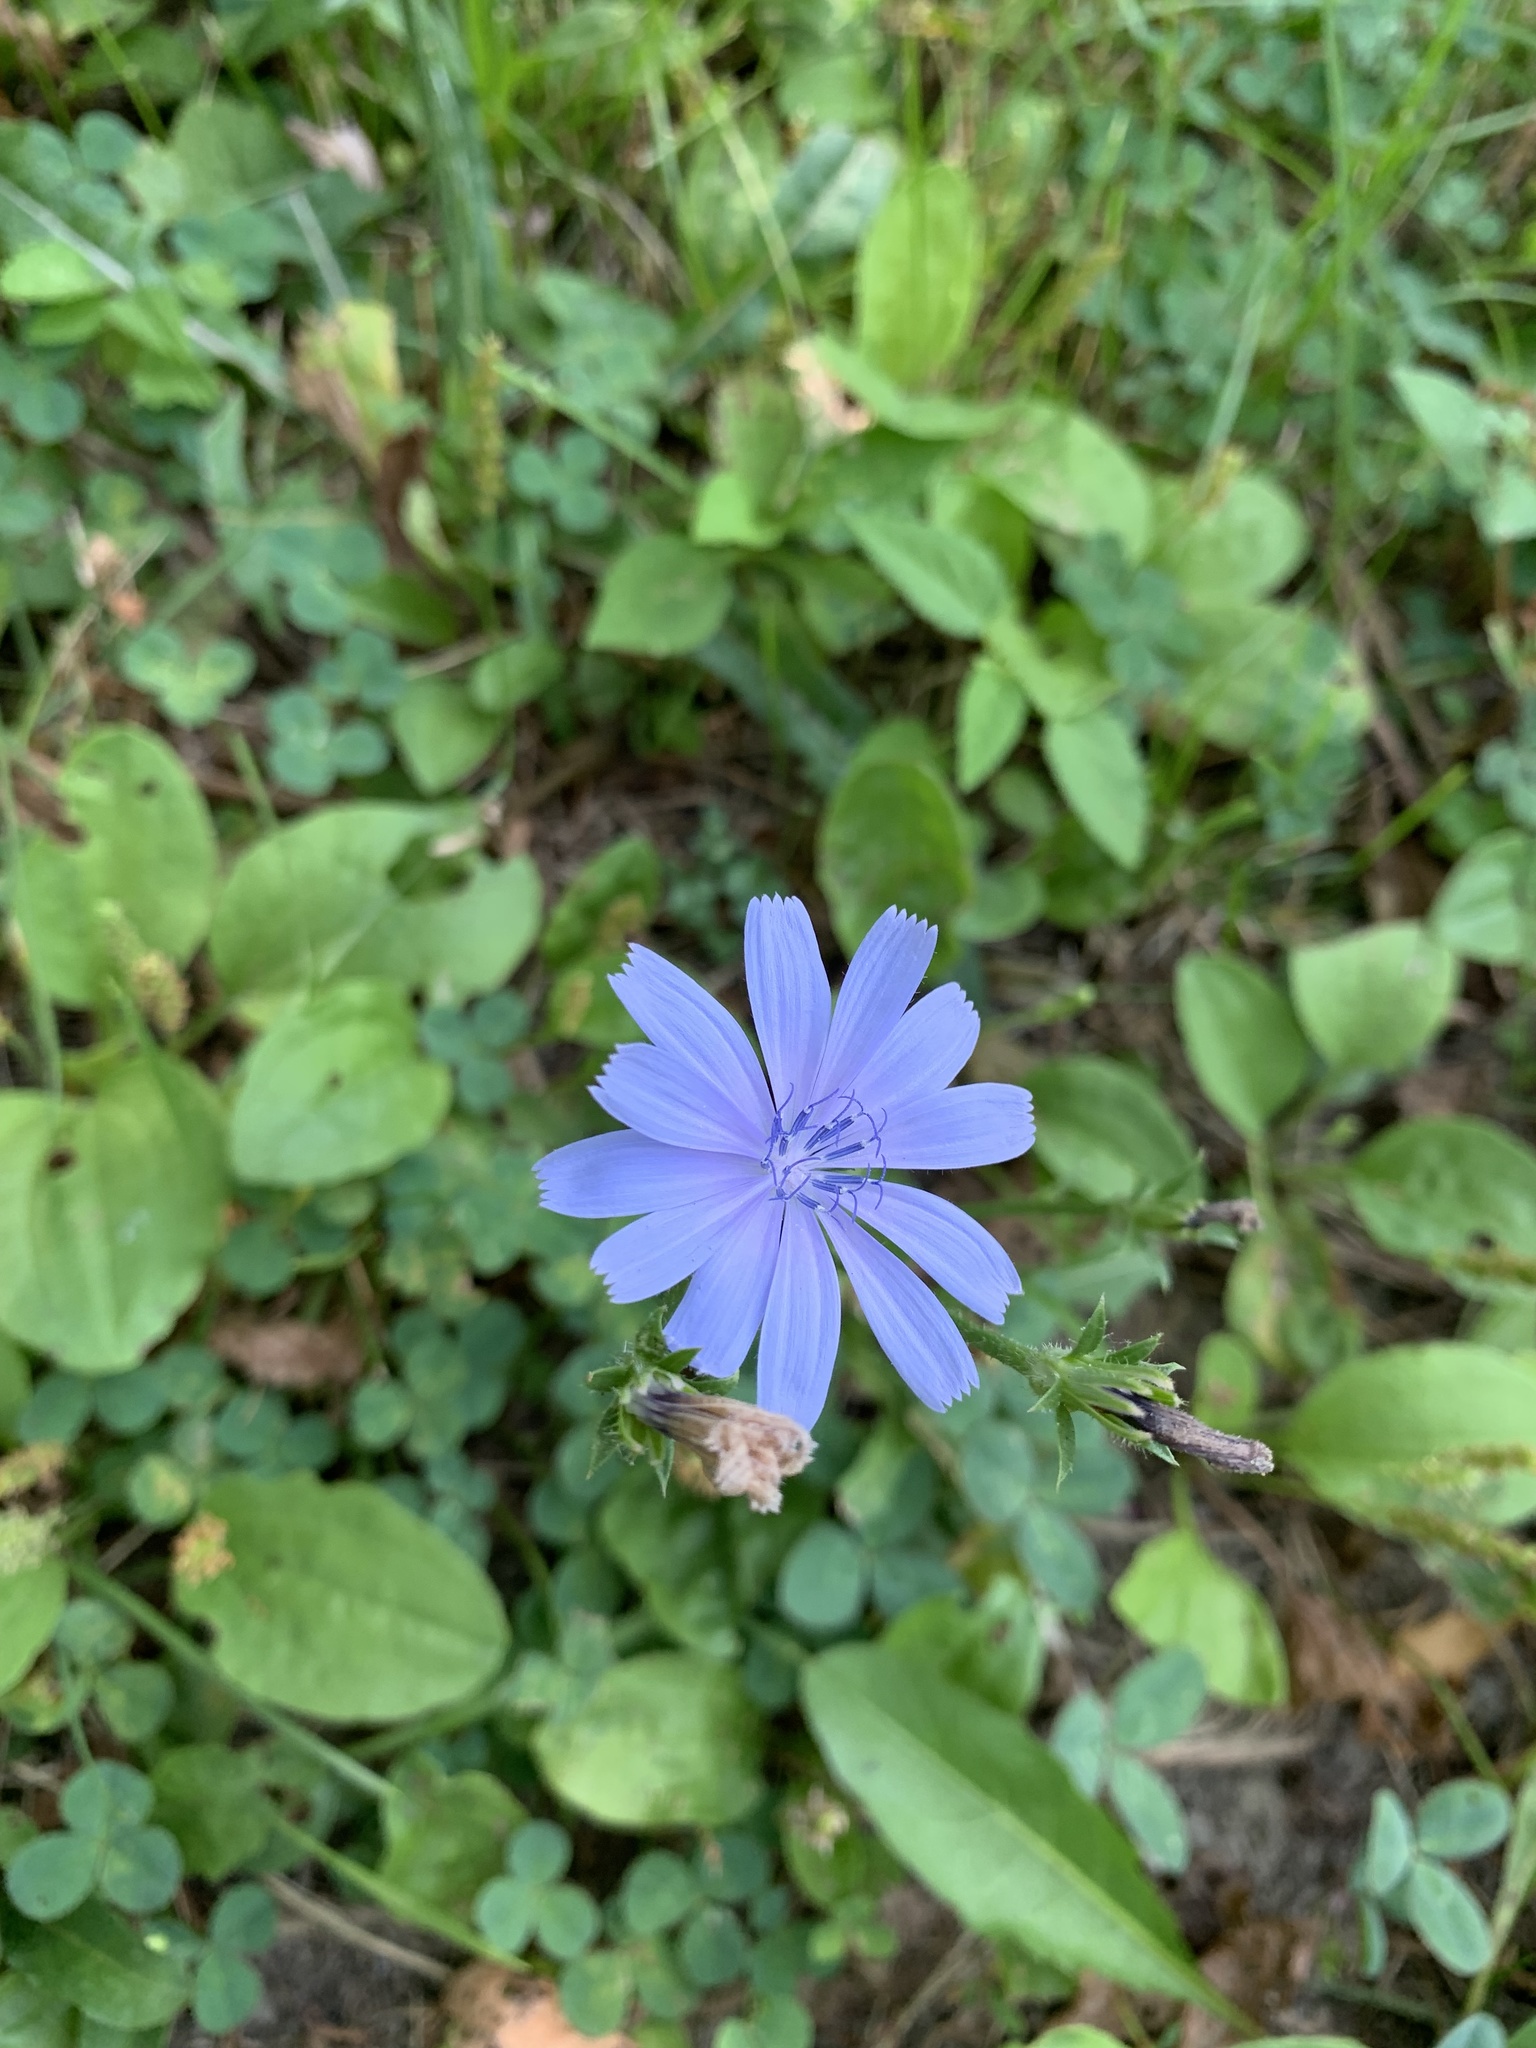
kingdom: Plantae
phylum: Tracheophyta
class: Magnoliopsida
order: Asterales
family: Asteraceae
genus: Cichorium
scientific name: Cichorium intybus
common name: Chicory
